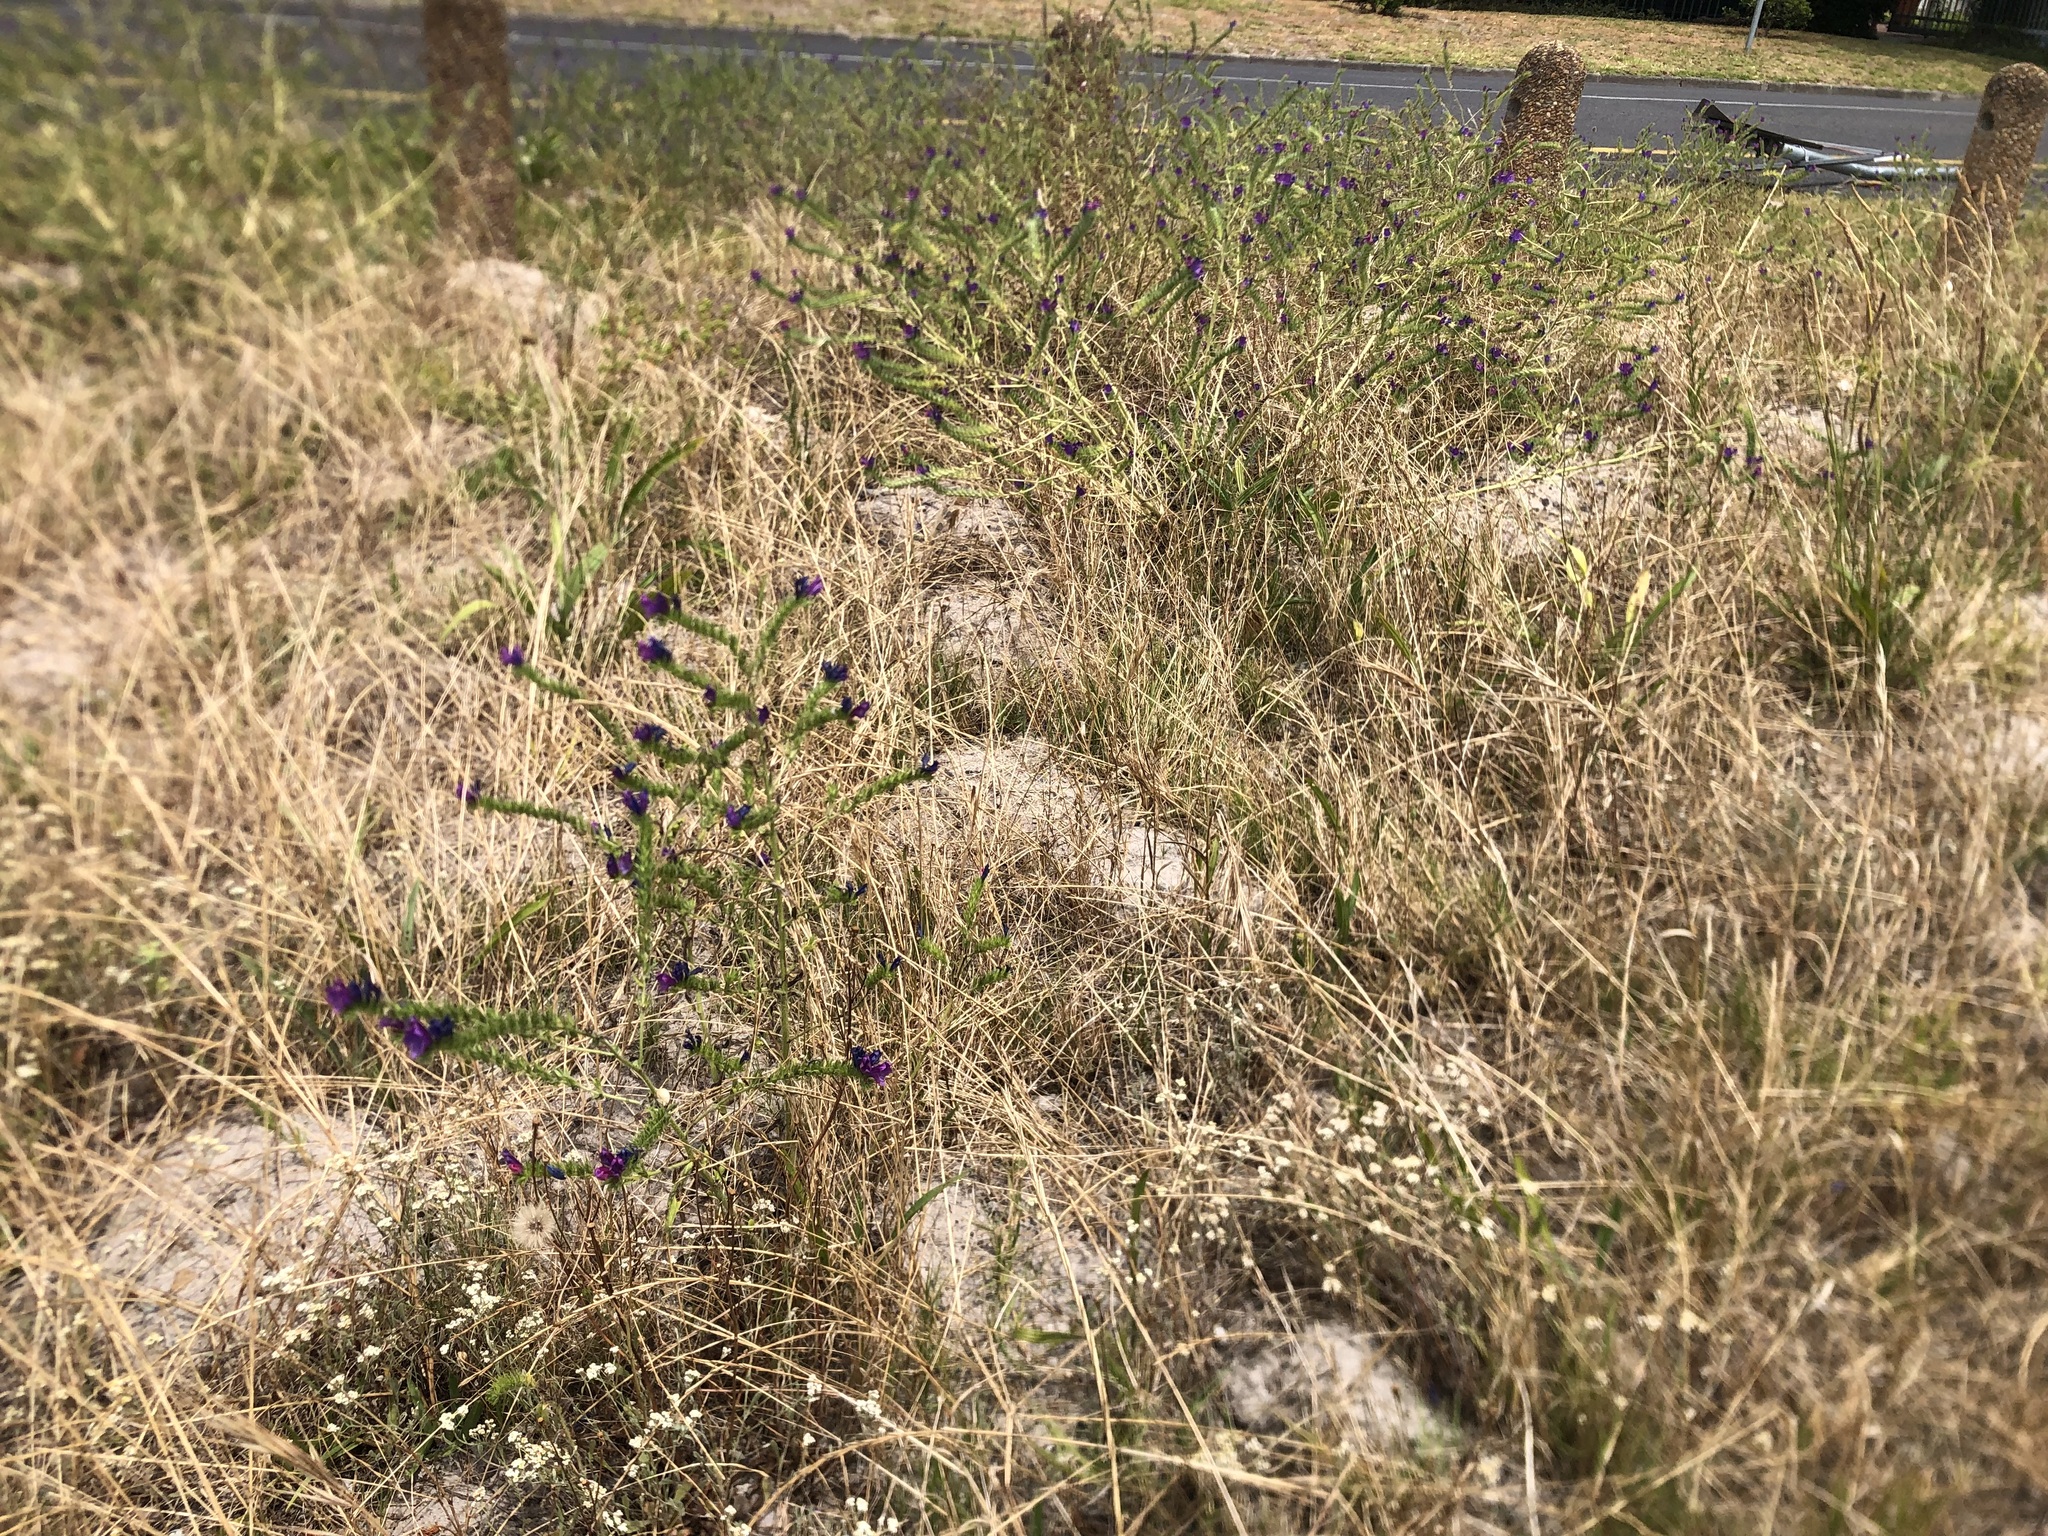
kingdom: Plantae
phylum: Tracheophyta
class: Magnoliopsida
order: Boraginales
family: Boraginaceae
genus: Echium
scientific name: Echium plantagineum
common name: Purple viper's-bugloss
